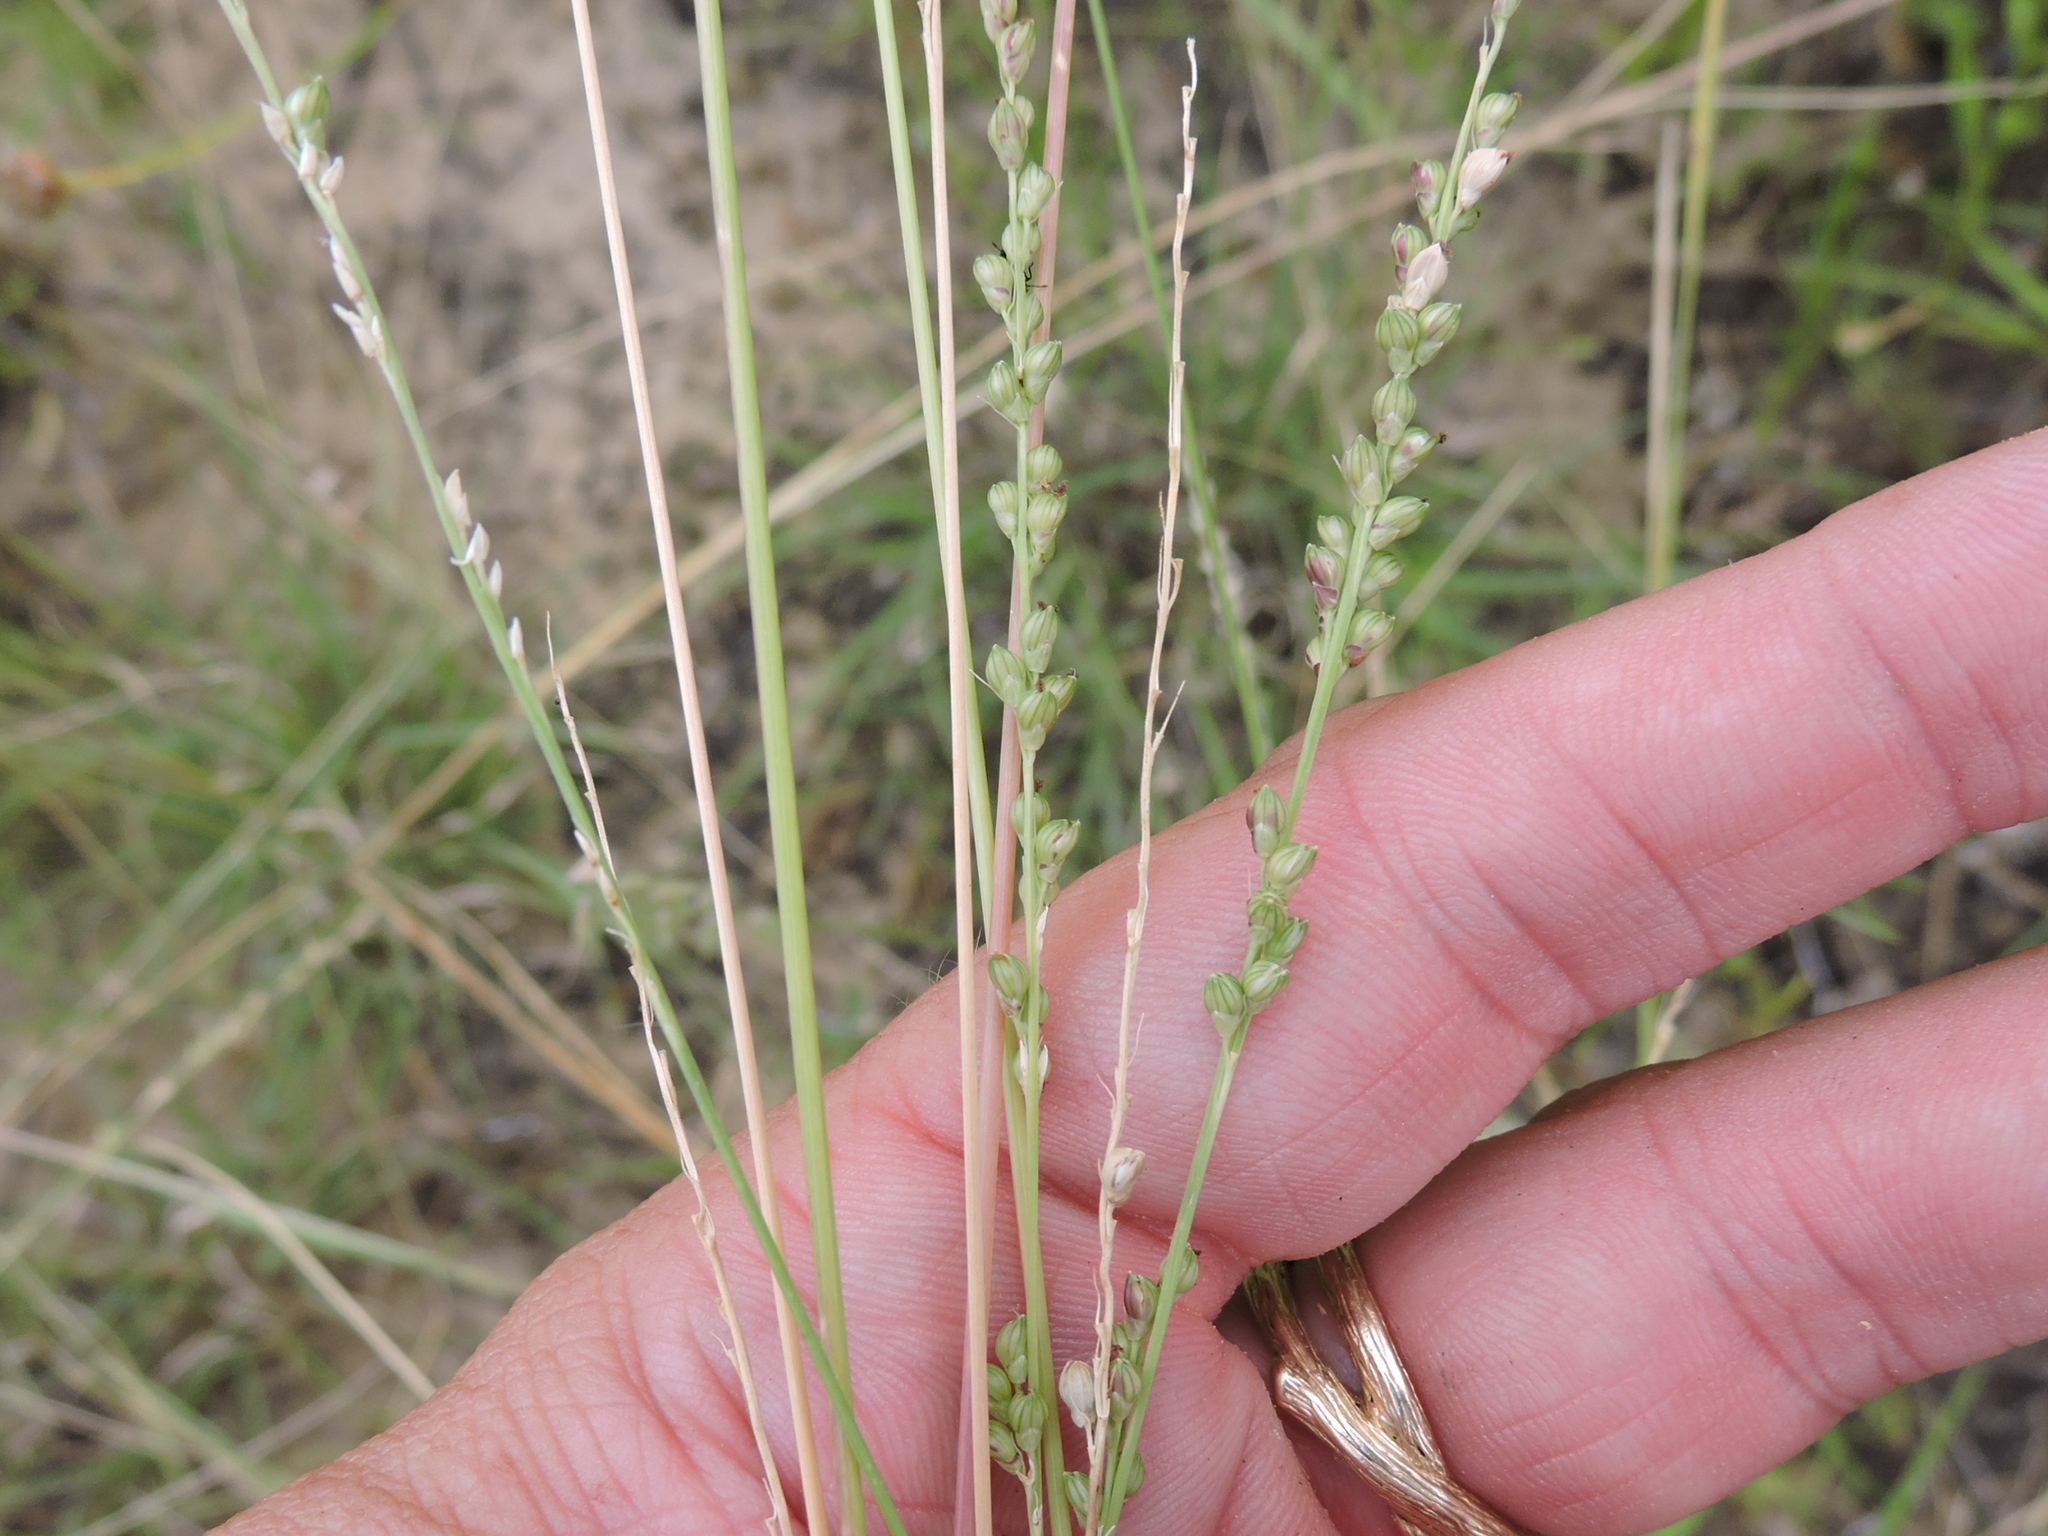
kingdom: Plantae
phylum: Tracheophyta
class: Liliopsida
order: Poales
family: Poaceae
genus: Setaria
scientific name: Setaria reverchonii
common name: Reverchon's bristle grass
